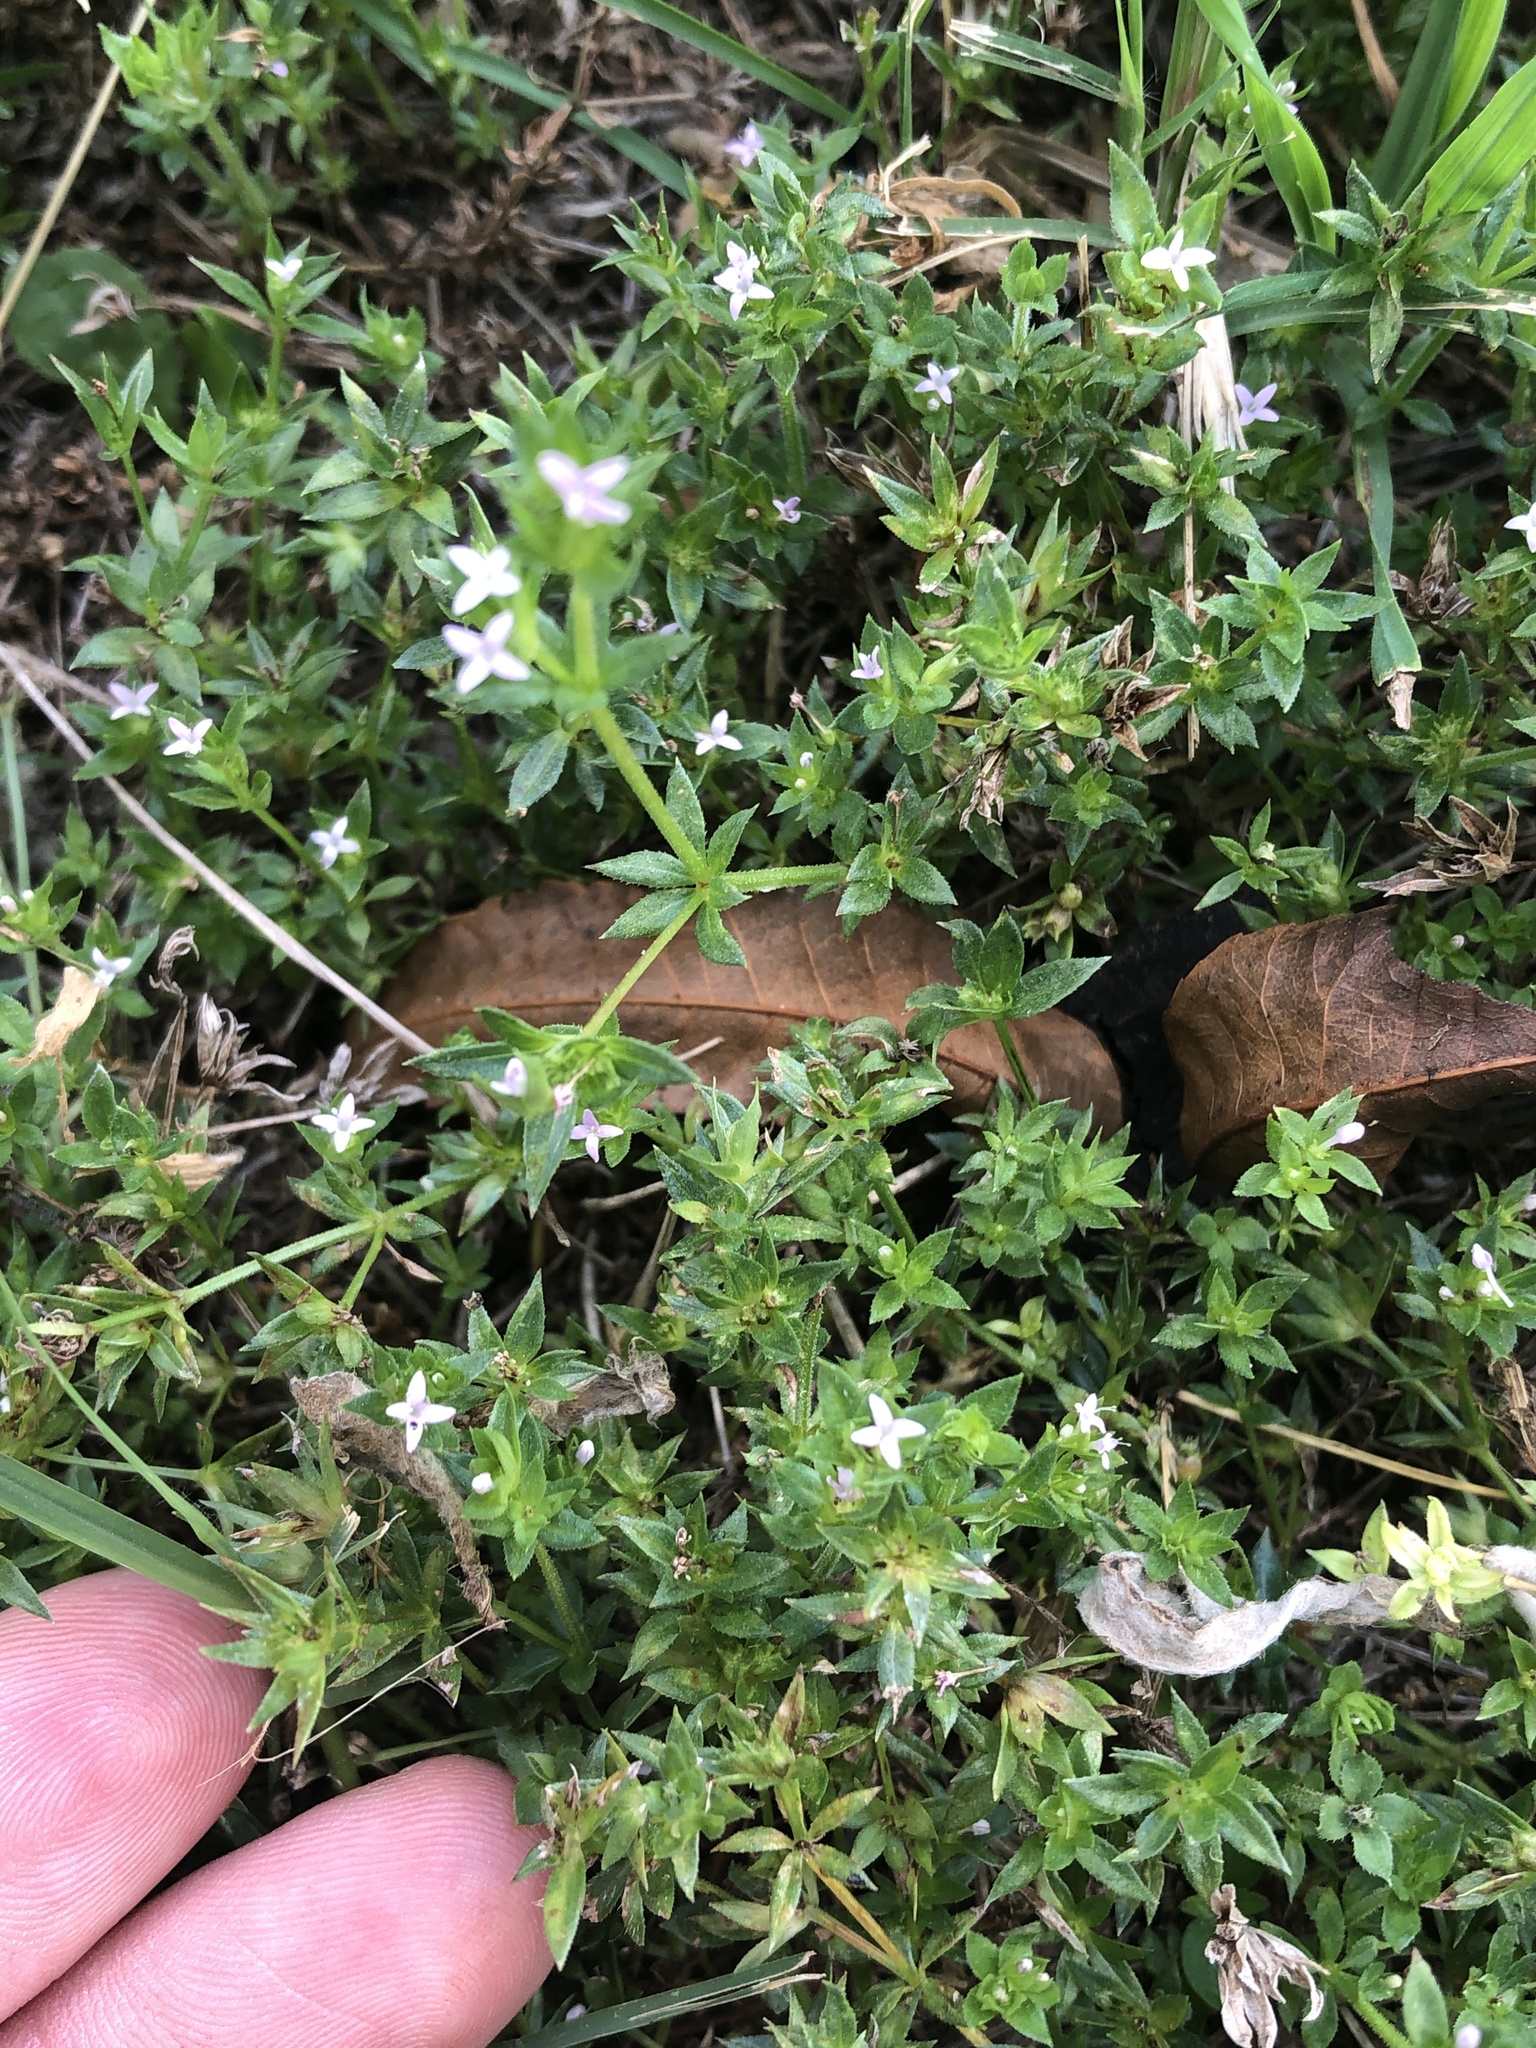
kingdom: Plantae
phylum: Tracheophyta
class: Magnoliopsida
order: Gentianales
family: Rubiaceae
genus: Sherardia
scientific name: Sherardia arvensis
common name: Field madder
